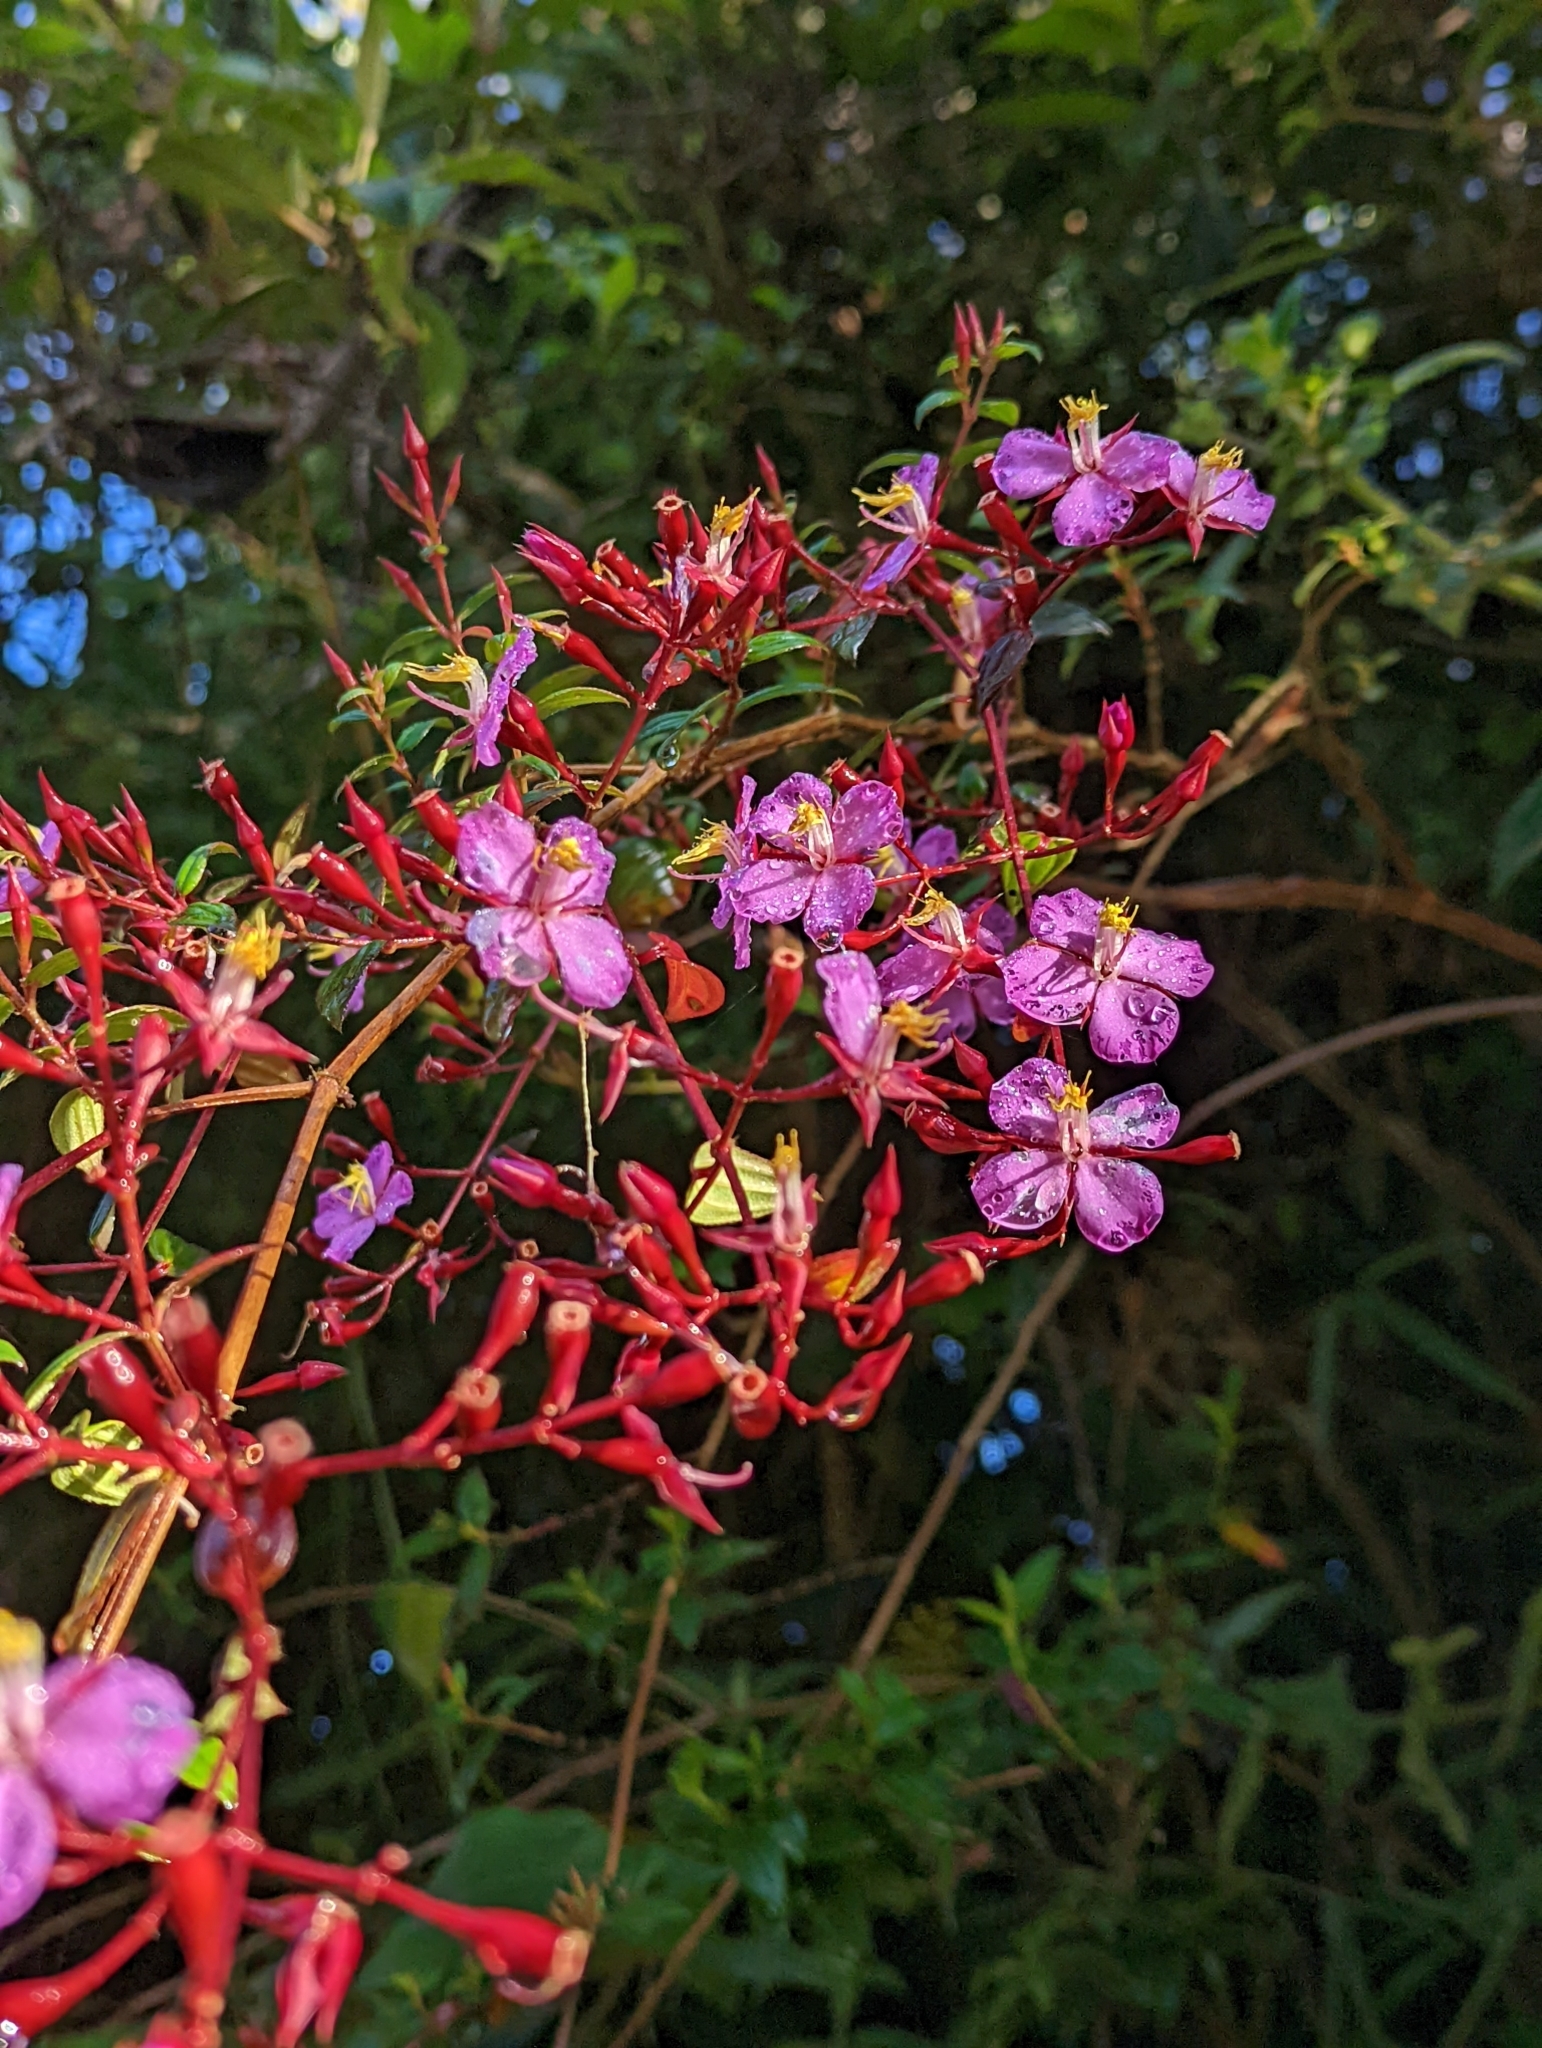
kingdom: Plantae
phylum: Tracheophyta
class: Magnoliopsida
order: Myrtales
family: Melastomataceae
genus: Monochaetum
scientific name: Monochaetum meridense
